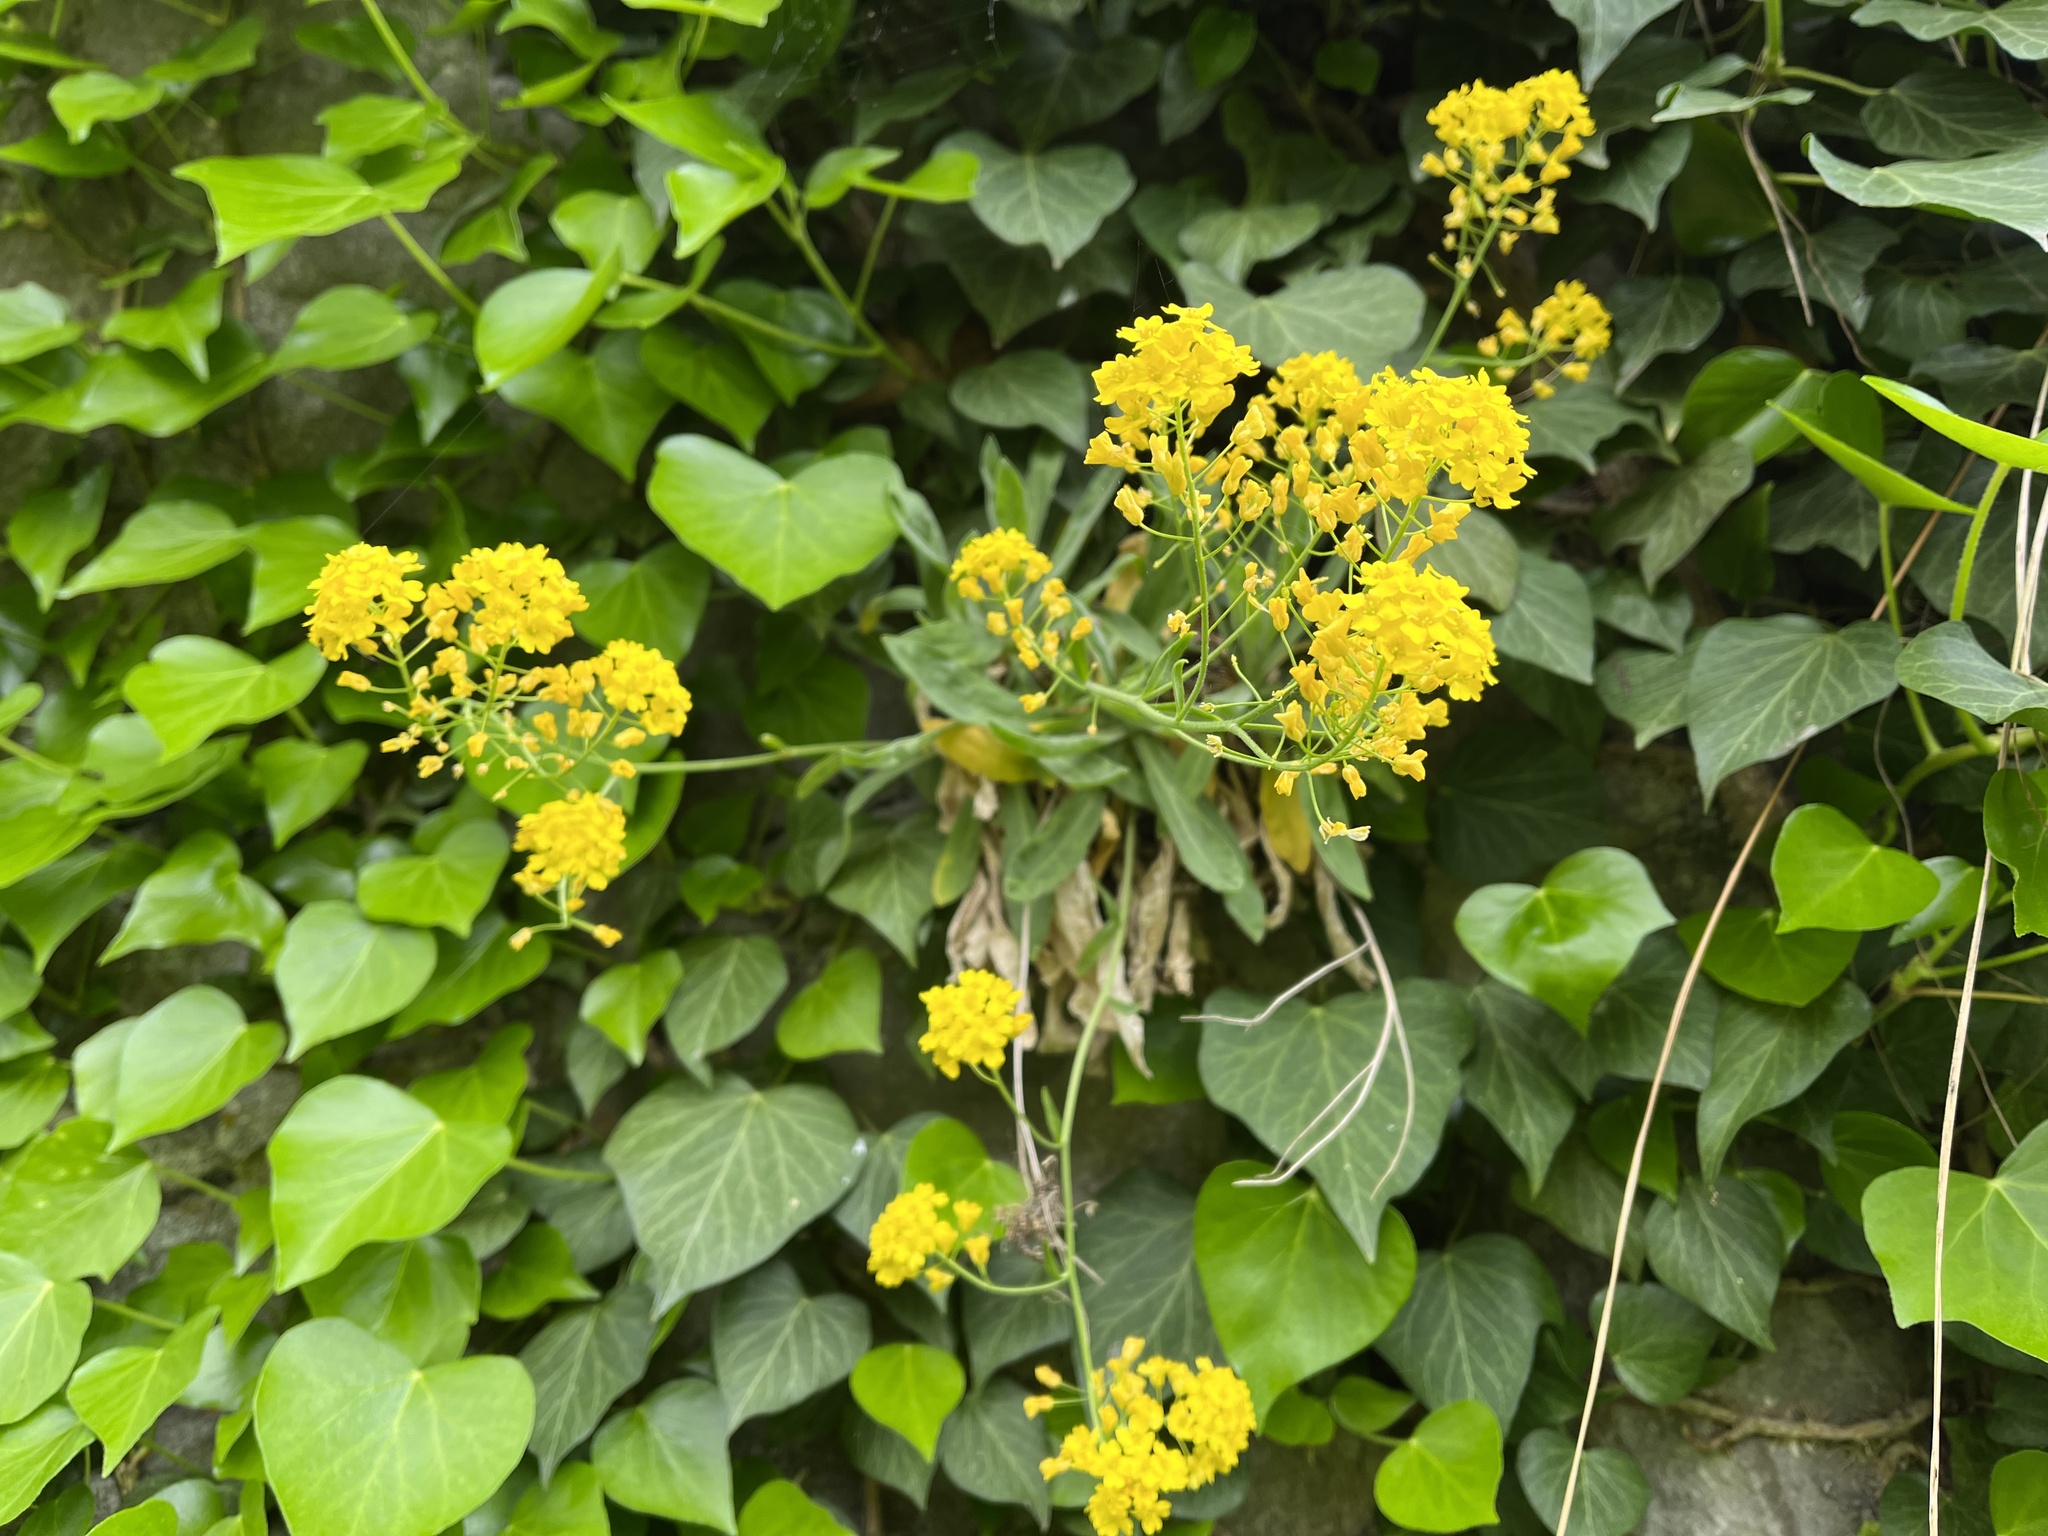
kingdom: Plantae
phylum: Tracheophyta
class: Magnoliopsida
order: Brassicales
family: Brassicaceae
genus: Aurinia
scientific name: Aurinia saxatilis
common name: Golden-tuft alyssum
